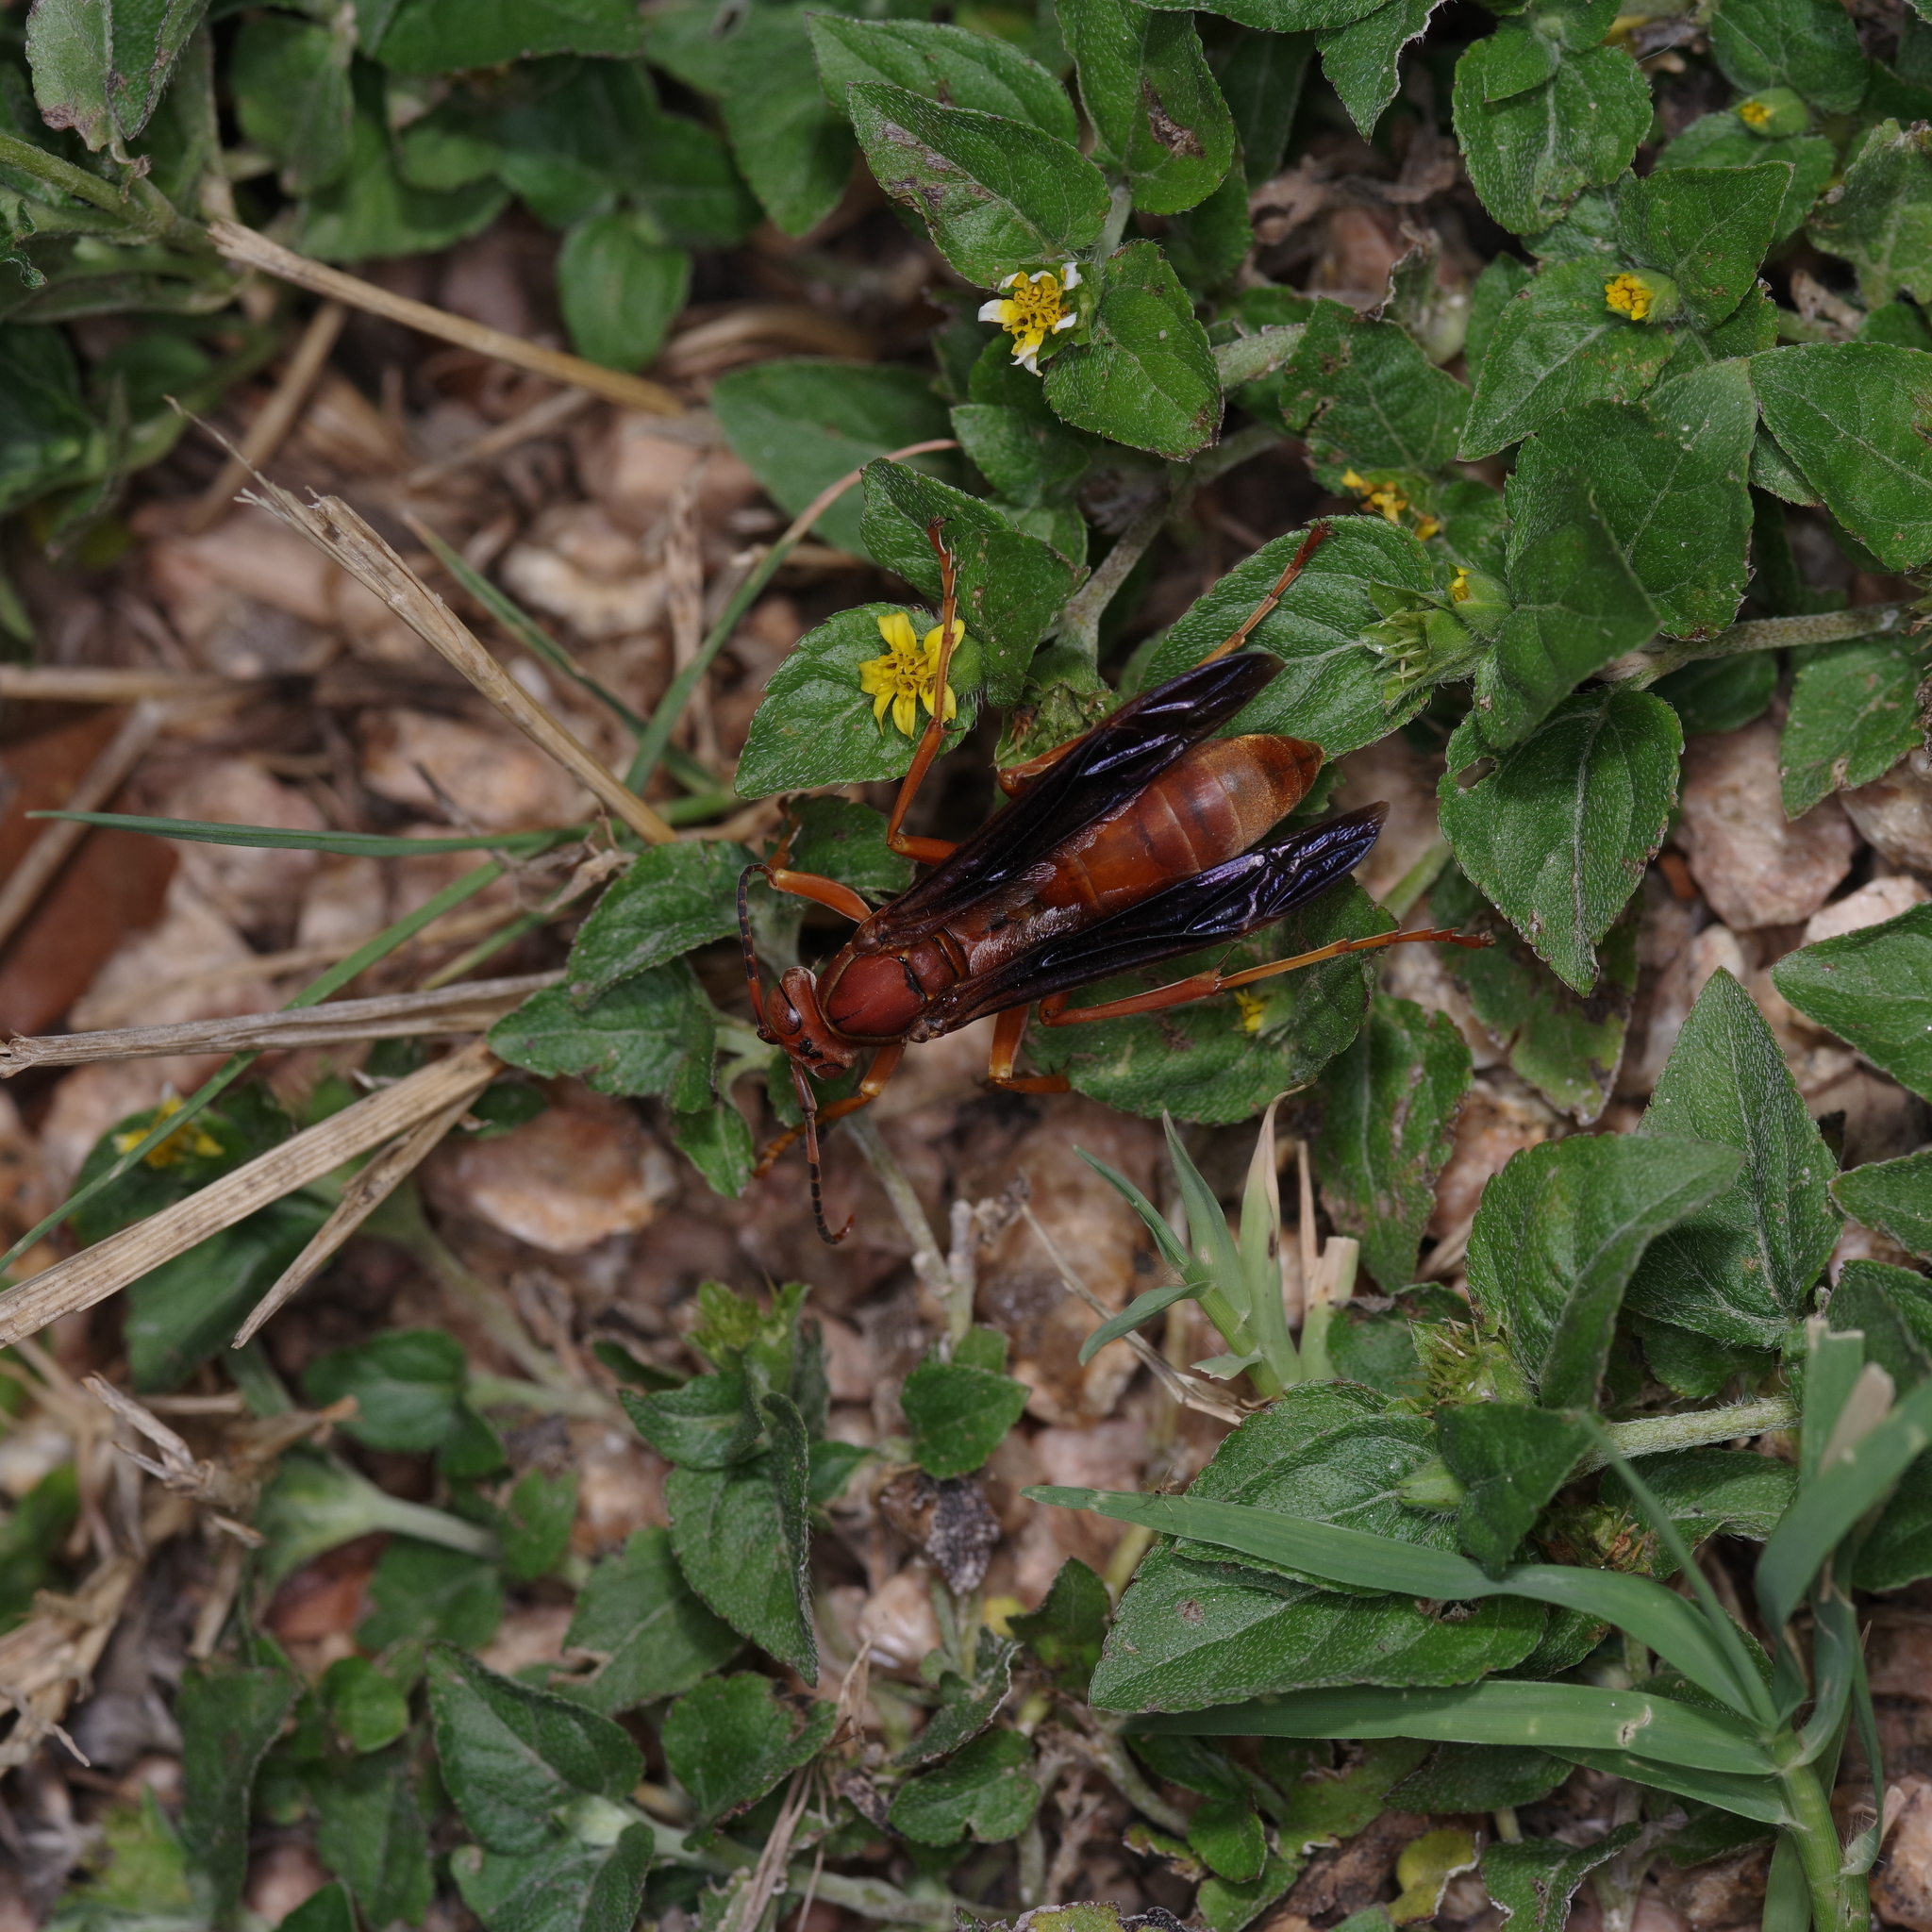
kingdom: Animalia
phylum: Arthropoda
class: Insecta
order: Hymenoptera
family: Eumenidae
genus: Polistes
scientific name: Polistes carolina
